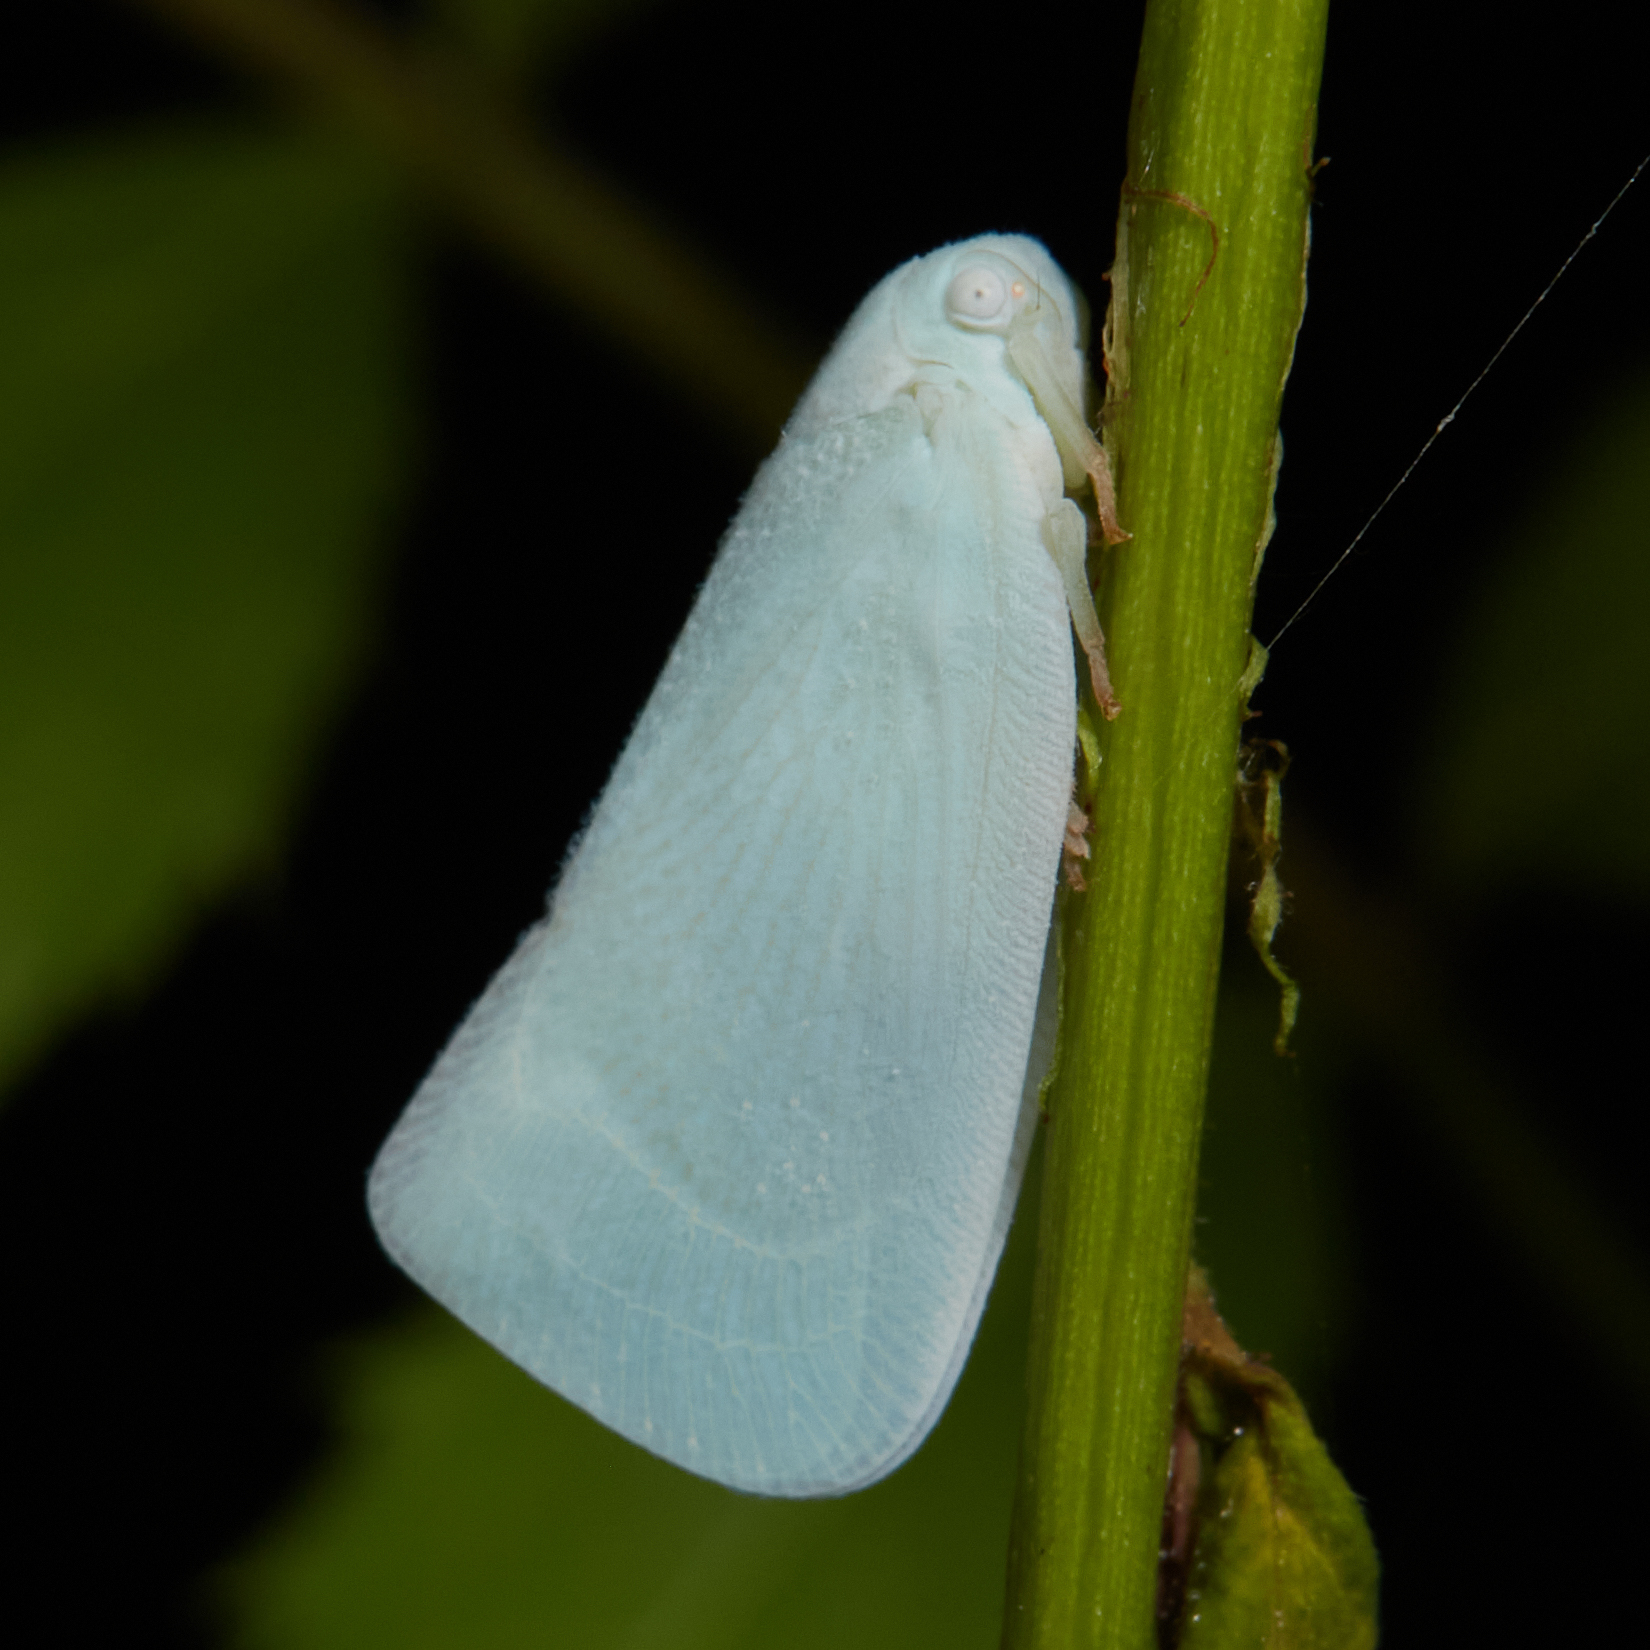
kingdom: Animalia
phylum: Arthropoda
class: Insecta
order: Hemiptera
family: Flatidae
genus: Flatormenis
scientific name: Flatormenis proxima
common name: Northern flatid planthopper
